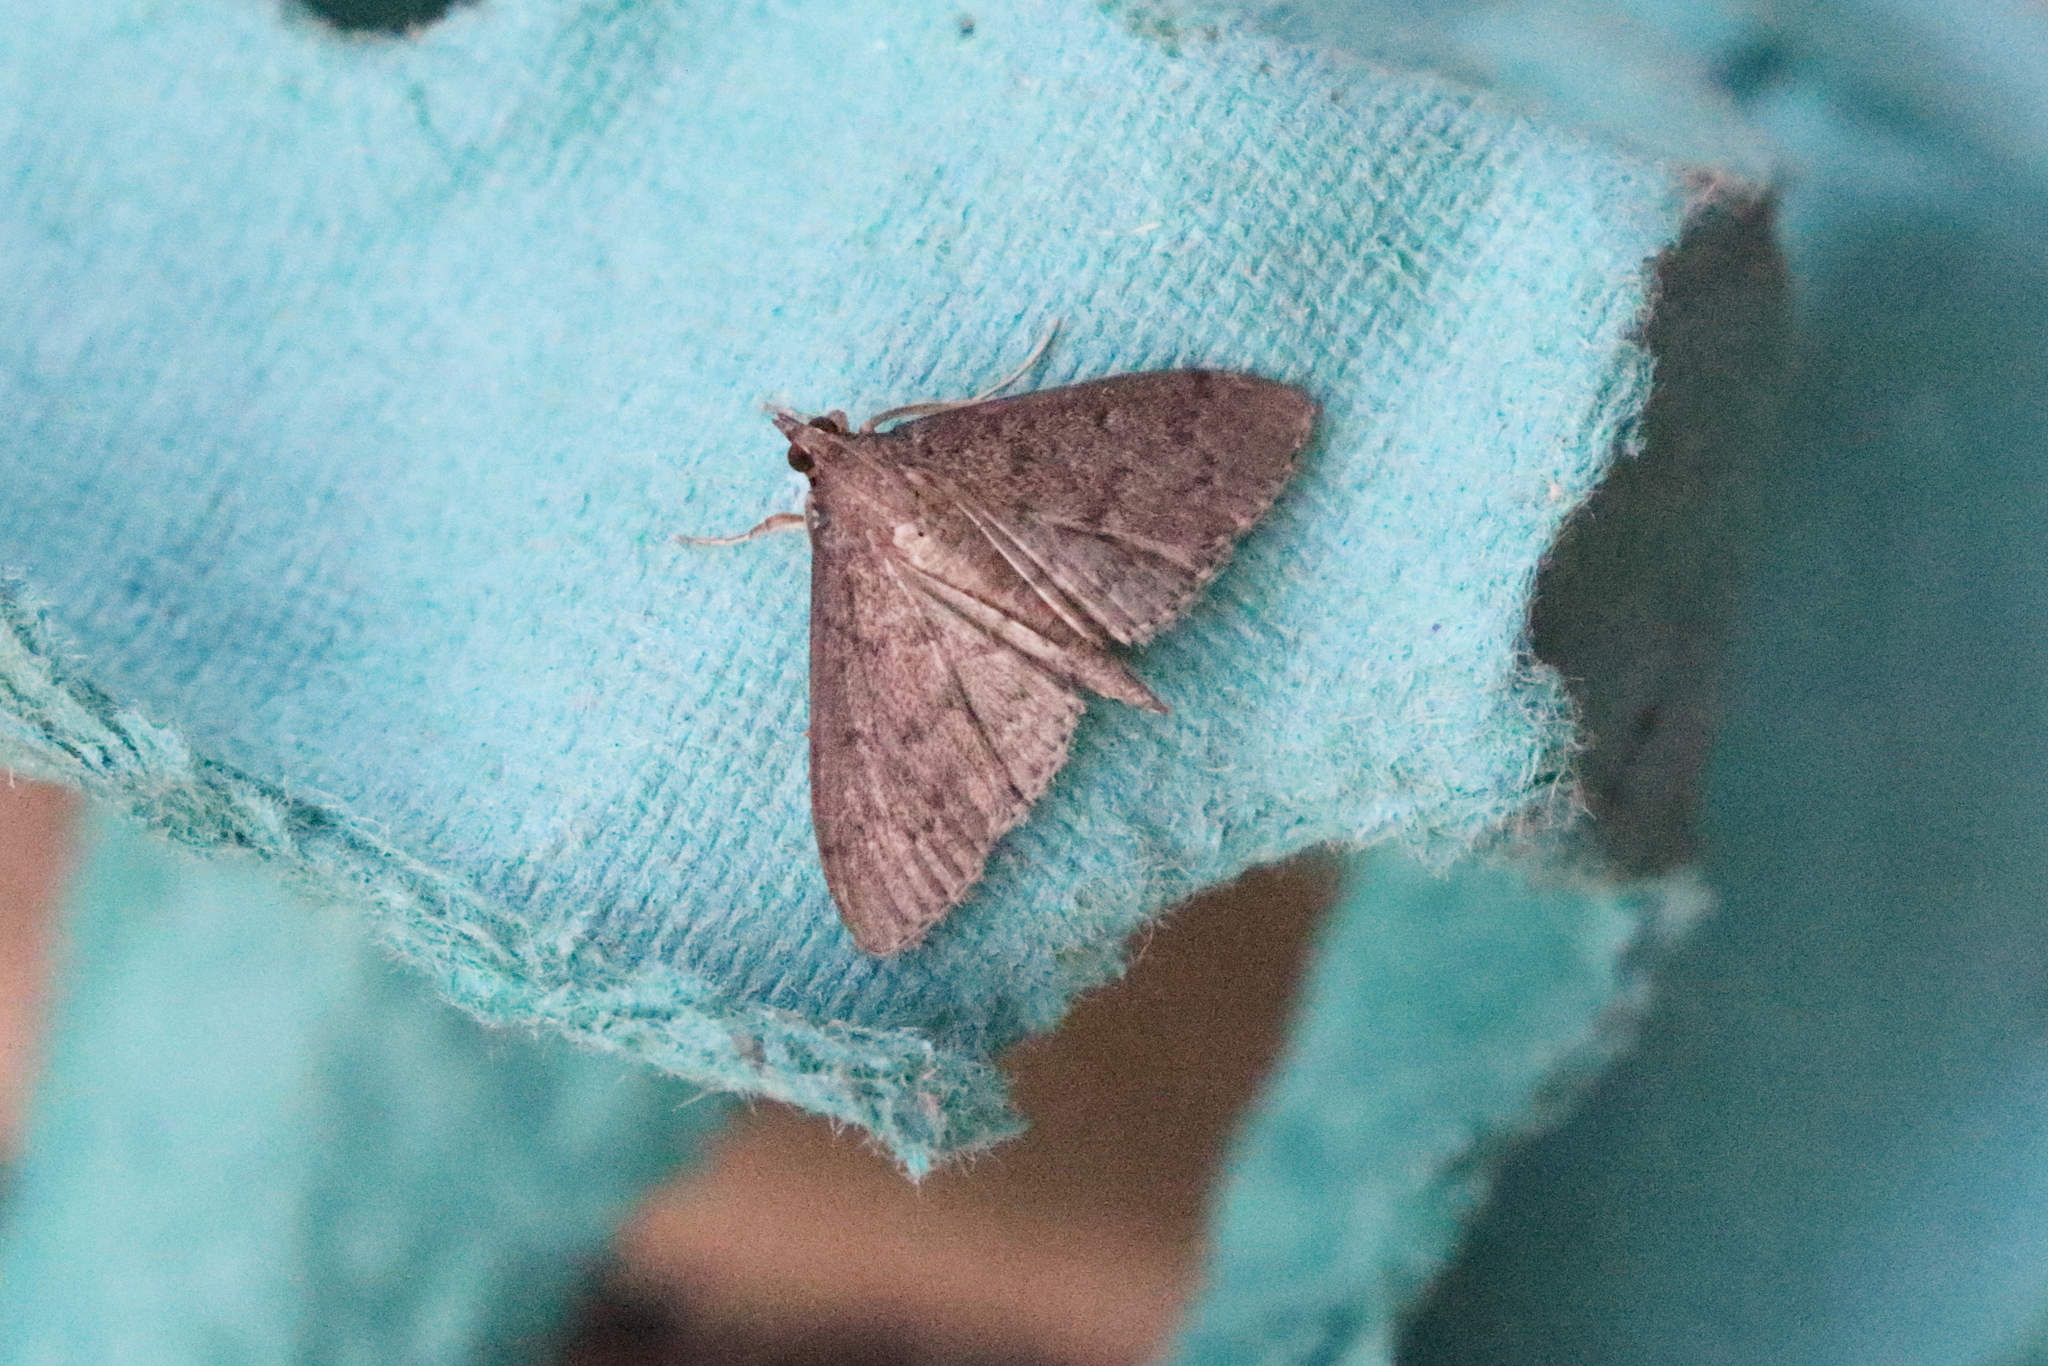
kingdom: Animalia
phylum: Arthropoda
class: Insecta
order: Lepidoptera
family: Crambidae
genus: Herpetogramma
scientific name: Herpetogramma licarsisalis
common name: Grass webworm
